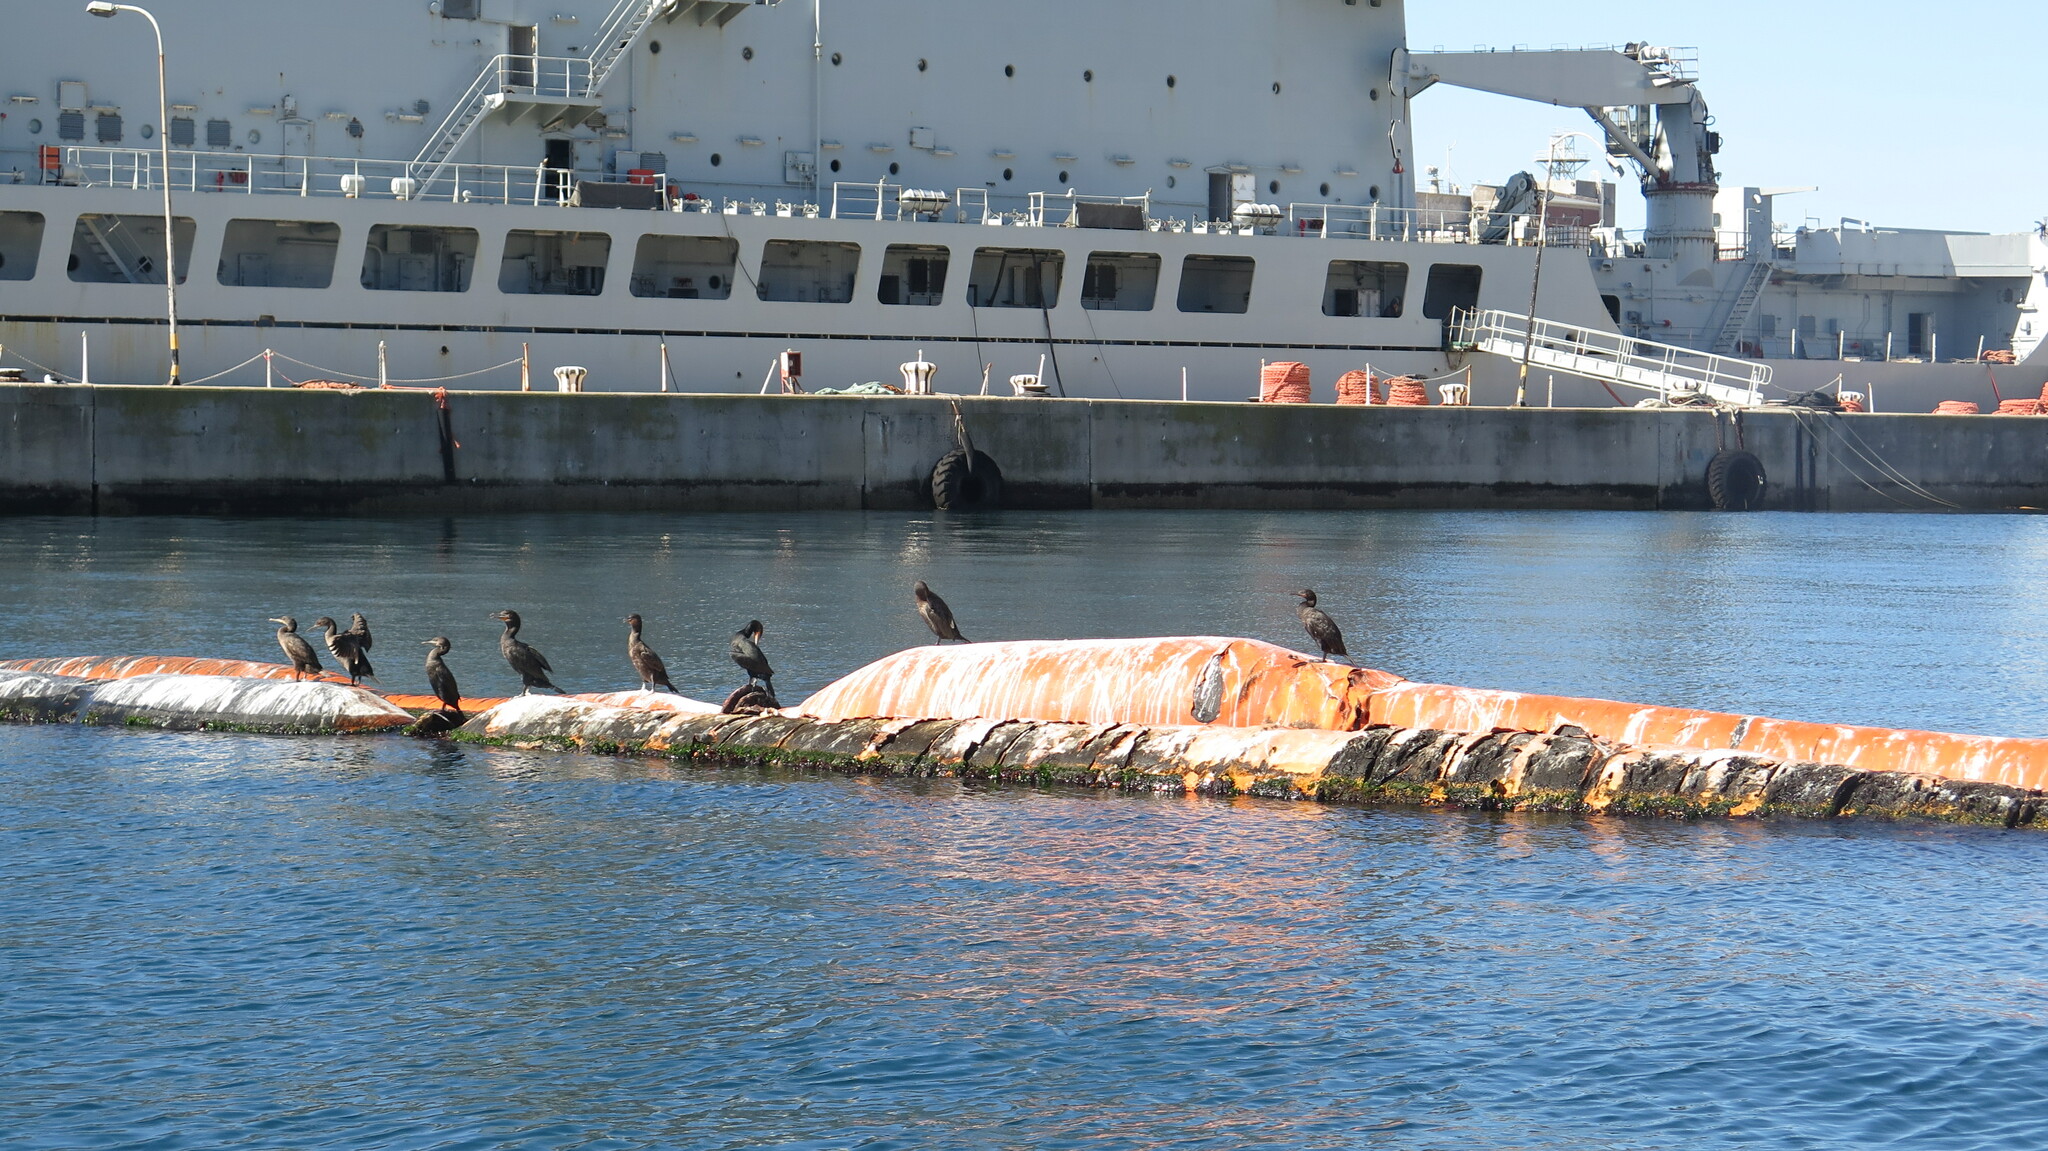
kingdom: Animalia
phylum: Chordata
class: Aves
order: Suliformes
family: Phalacrocoracidae
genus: Phalacrocorax
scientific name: Phalacrocorax capensis
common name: Cape cormorant
